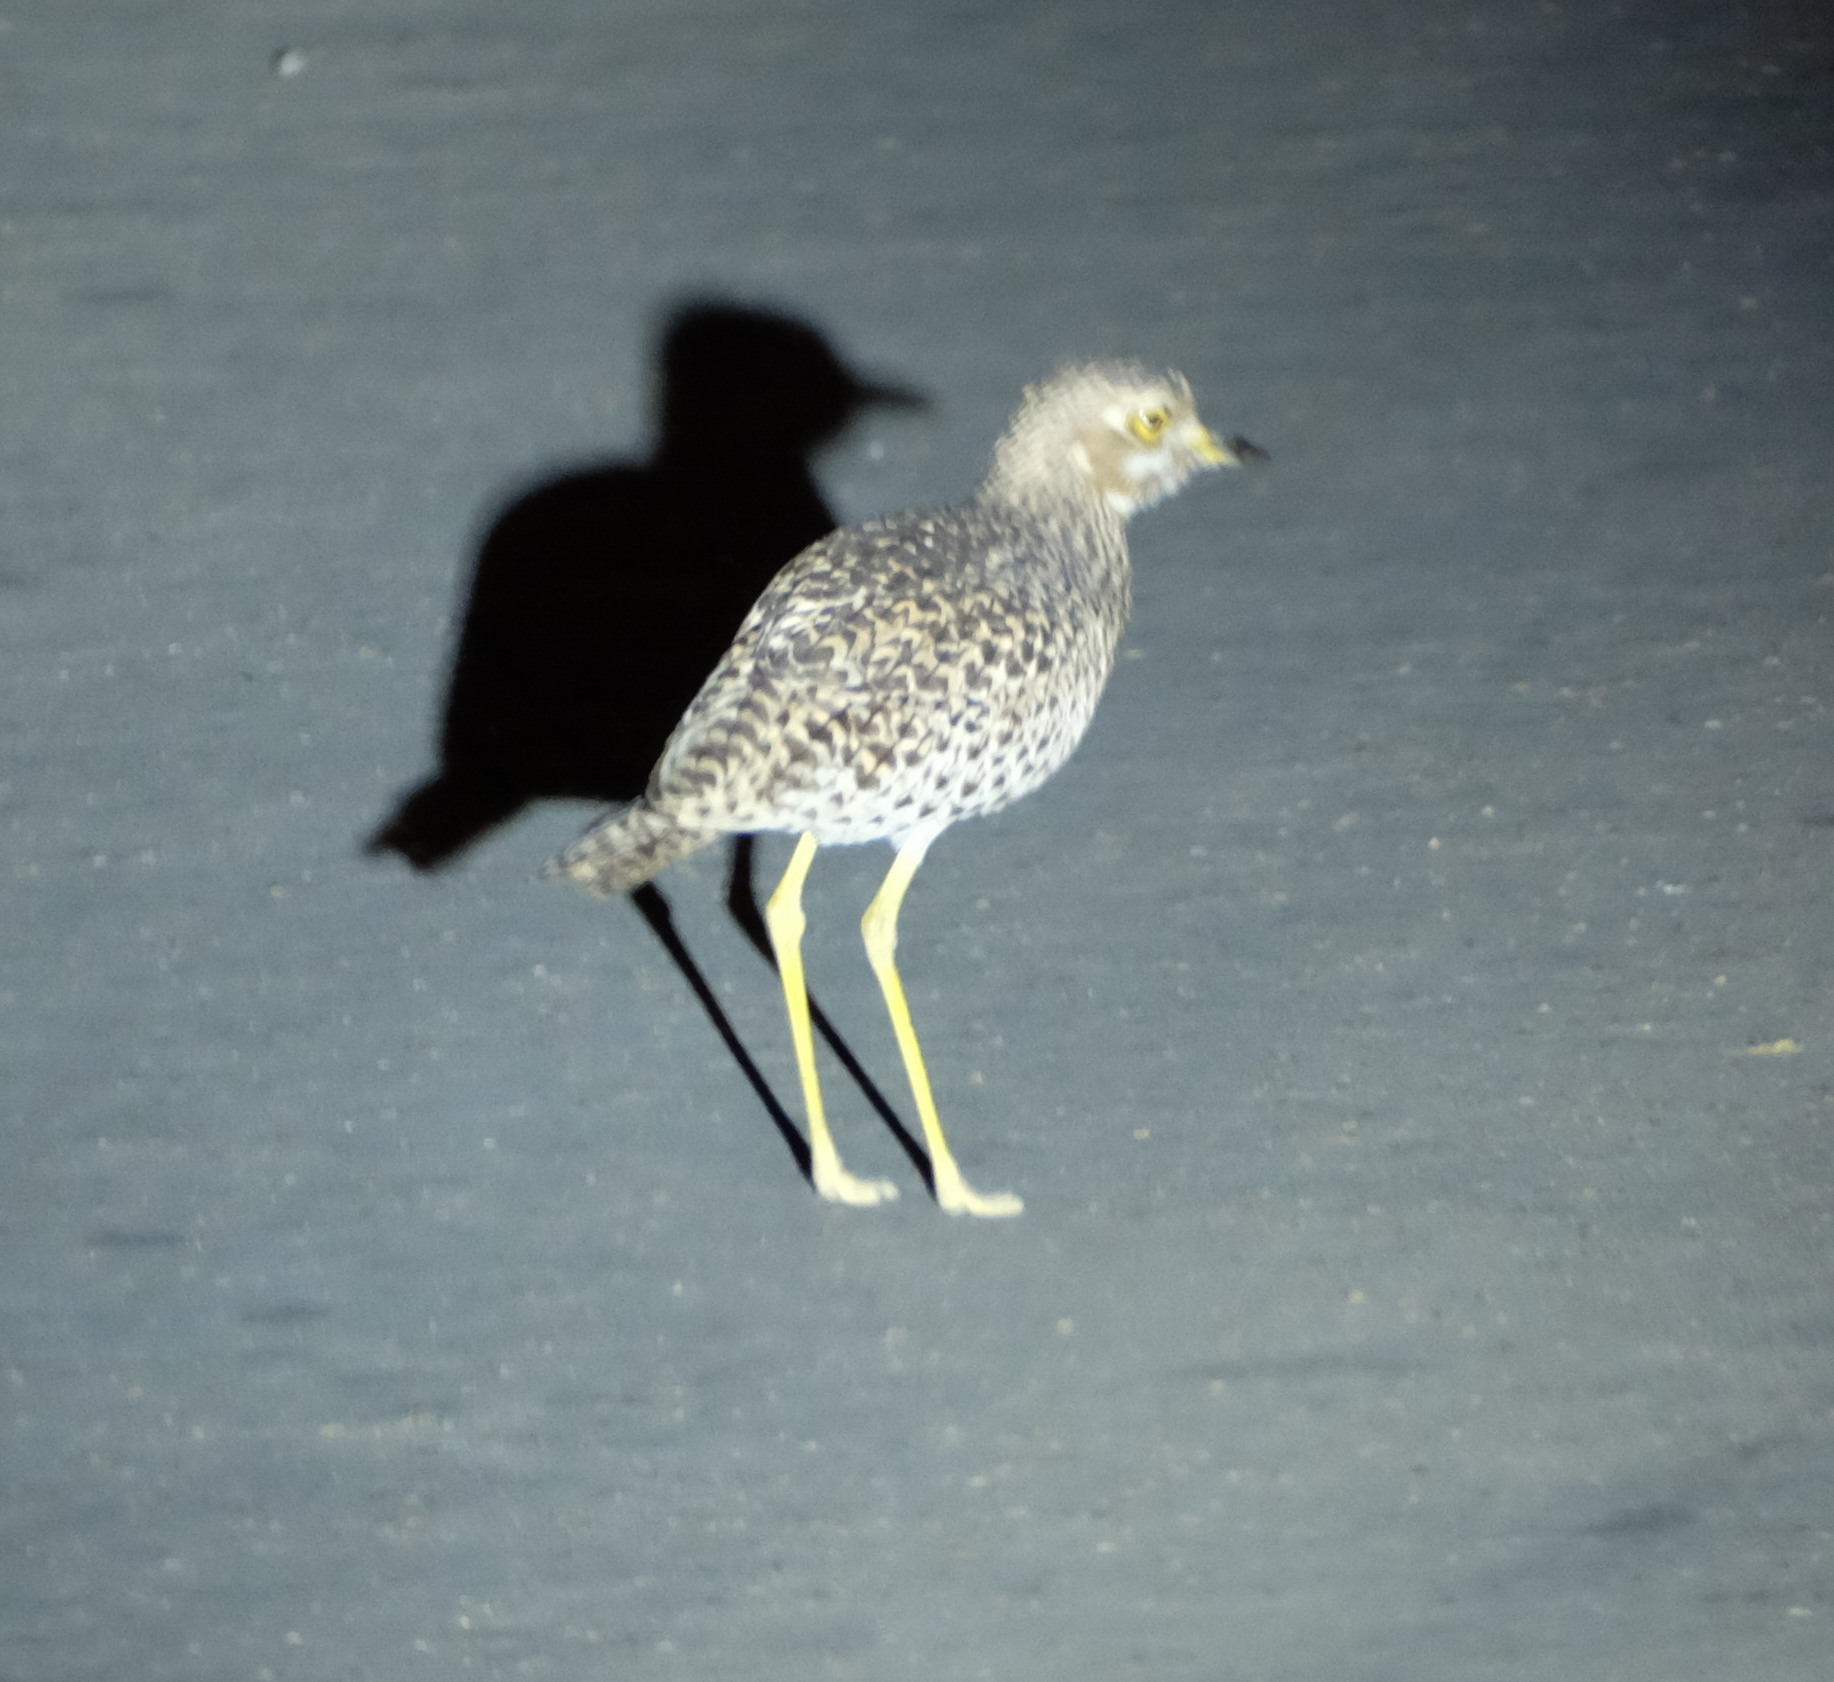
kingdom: Animalia
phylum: Chordata
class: Aves
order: Charadriiformes
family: Burhinidae
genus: Burhinus
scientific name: Burhinus capensis
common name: Spotted thick-knee
